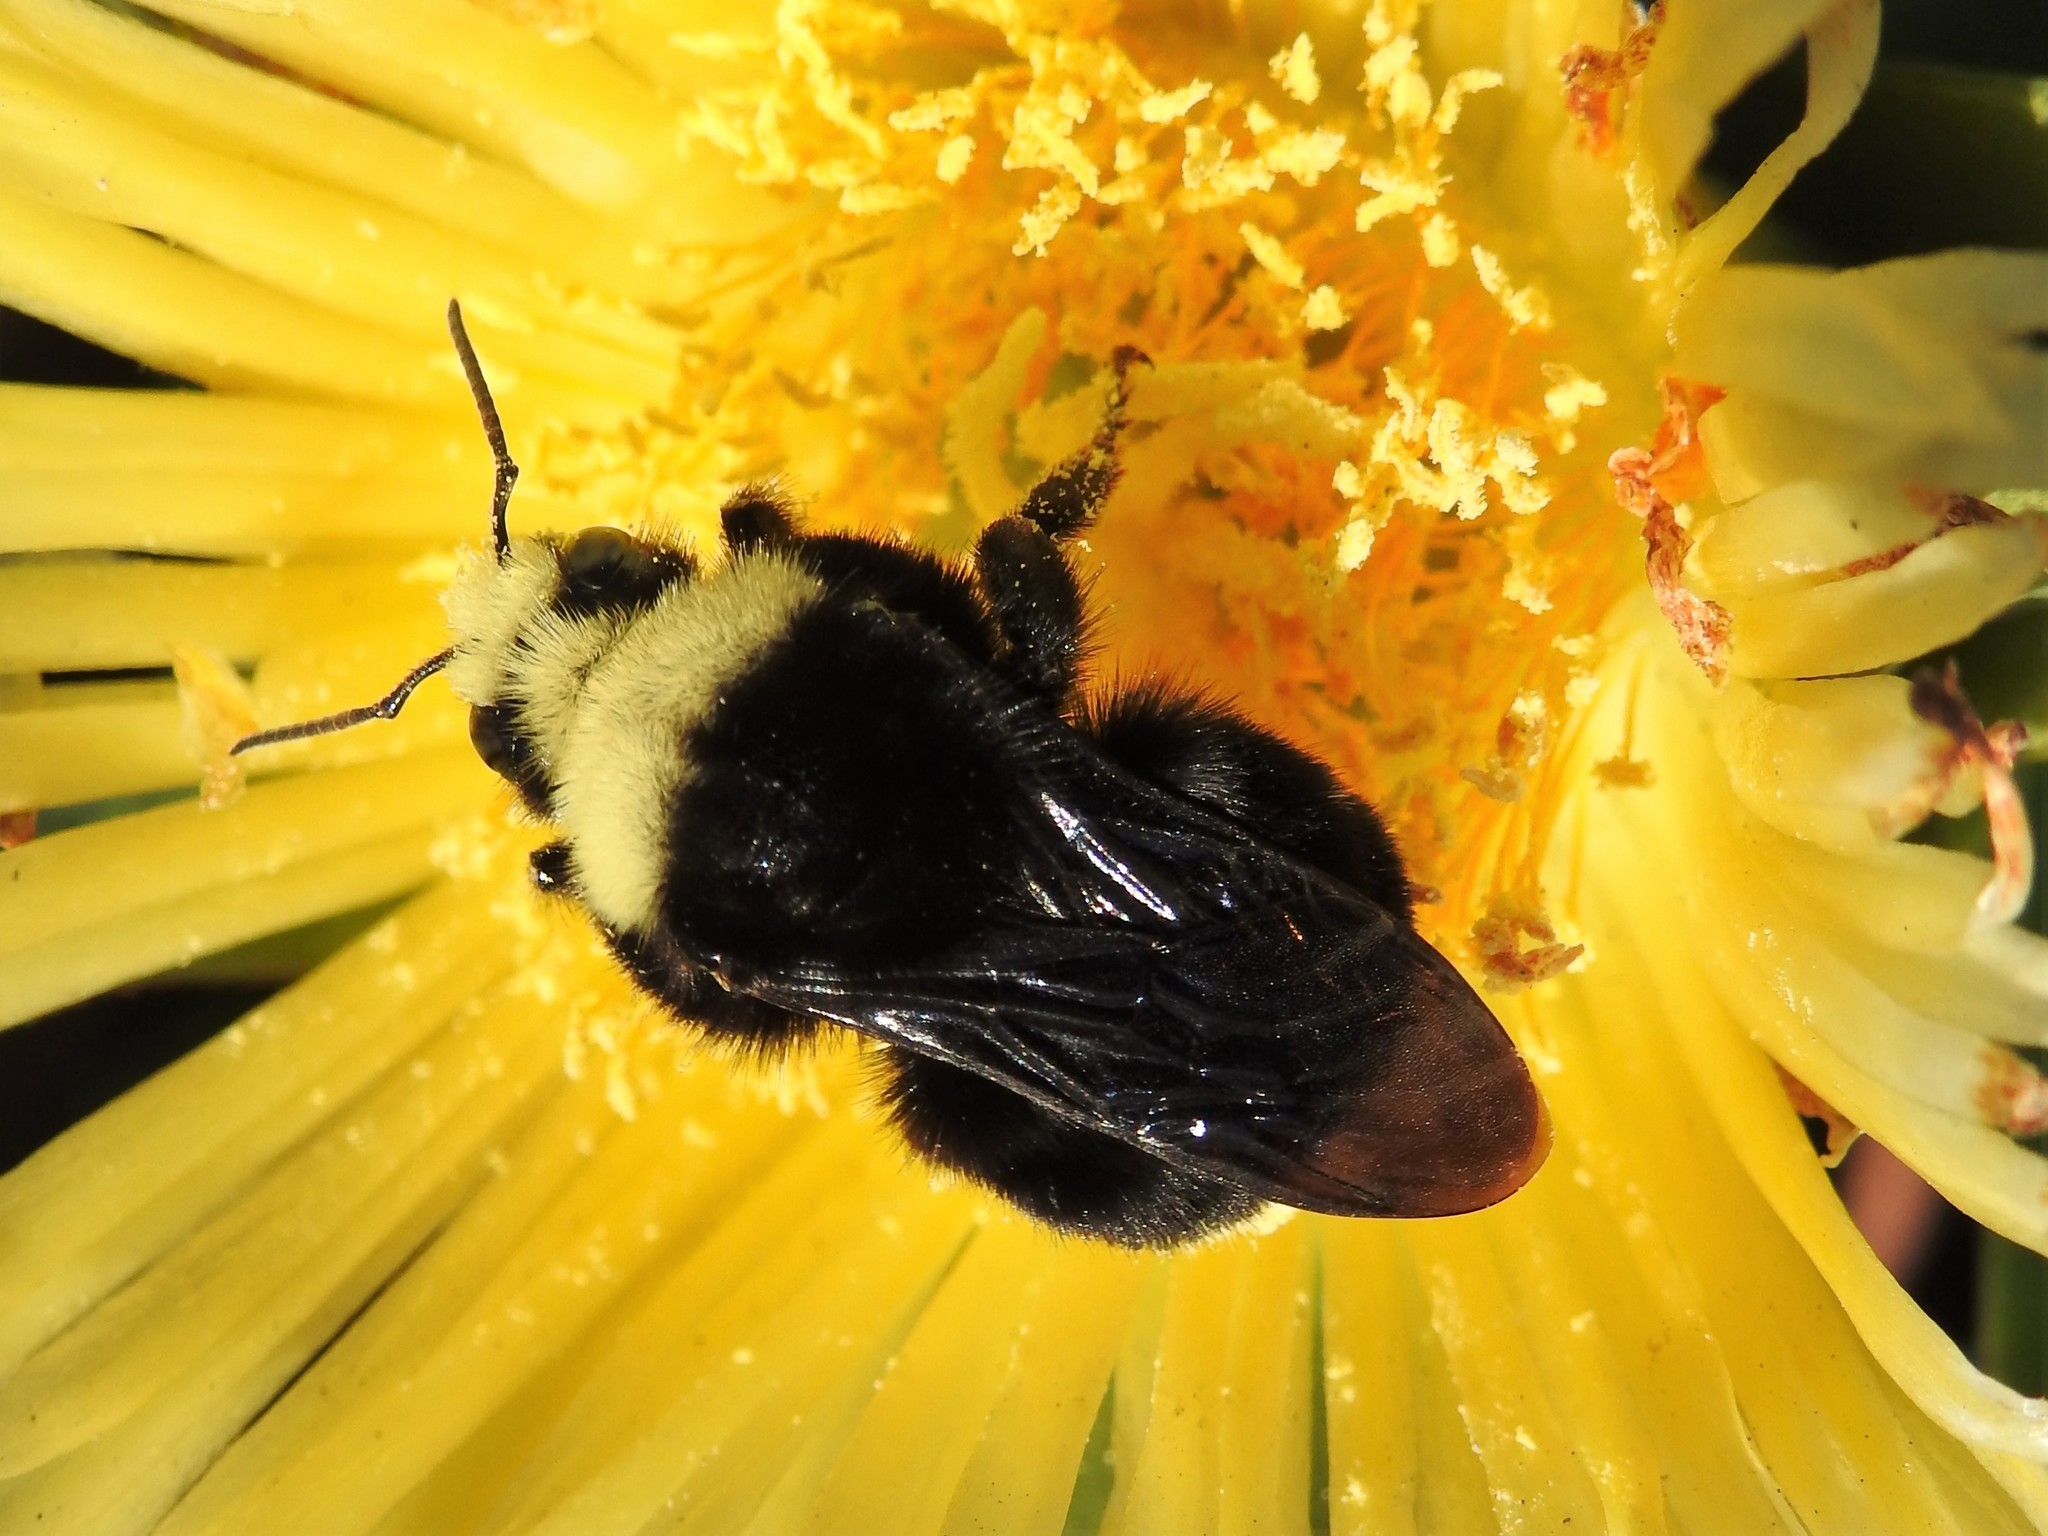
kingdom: Animalia
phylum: Arthropoda
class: Insecta
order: Hymenoptera
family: Apidae
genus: Pyrobombus
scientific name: Pyrobombus
